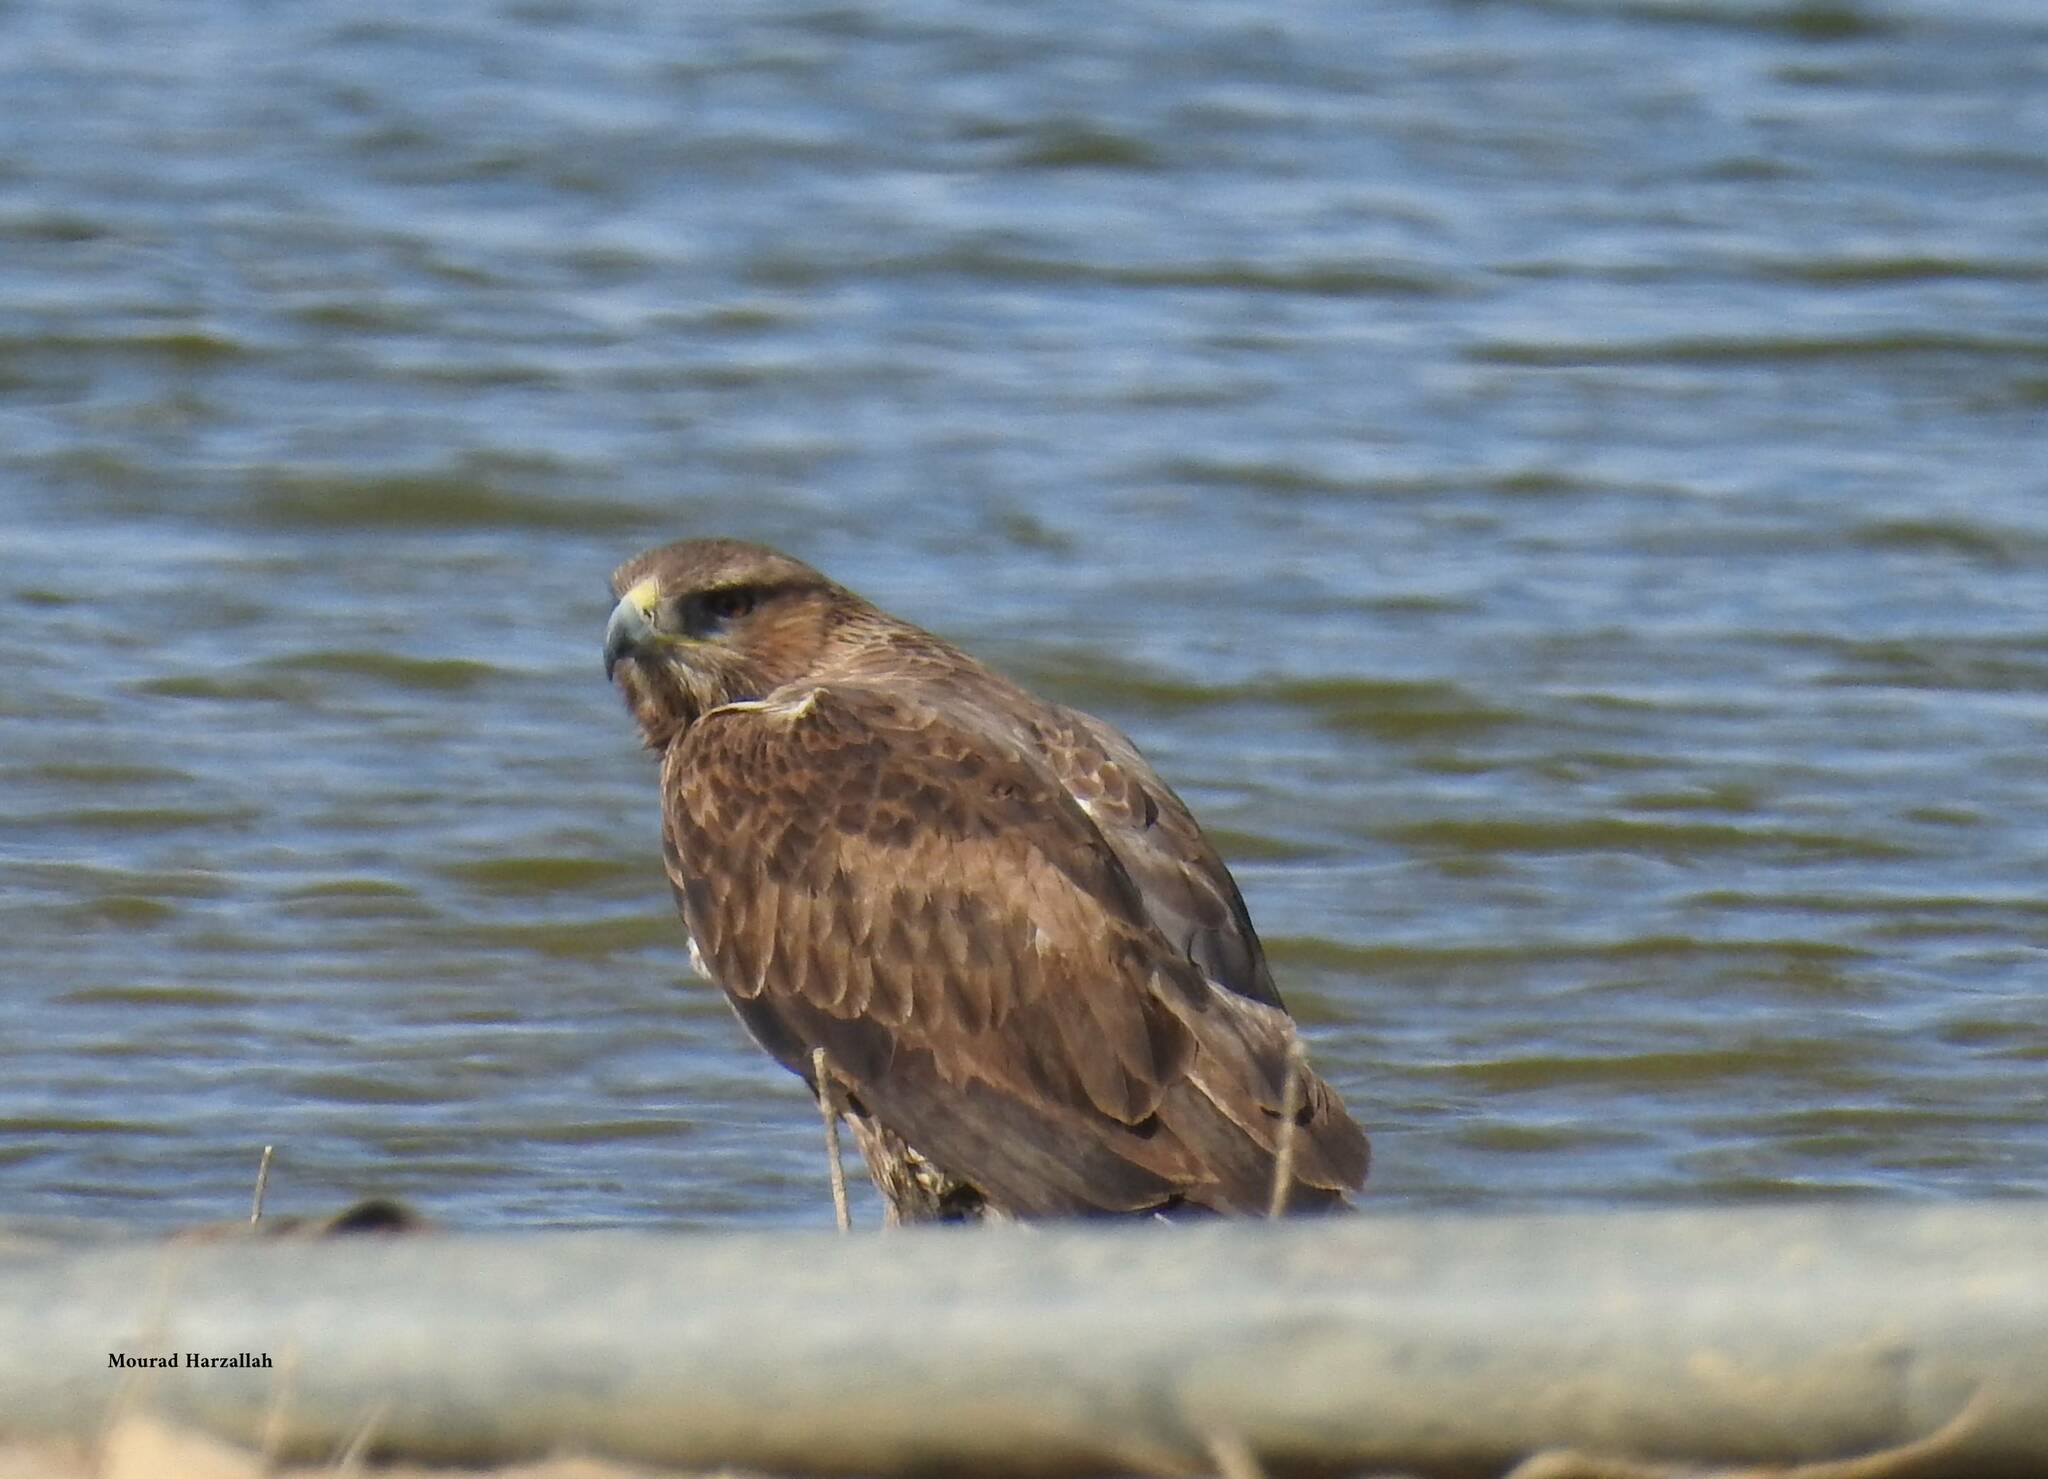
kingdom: Animalia
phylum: Chordata
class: Aves
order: Accipitriformes
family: Accipitridae
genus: Aquila
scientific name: Aquila fasciata
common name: Bonelli's eagle
